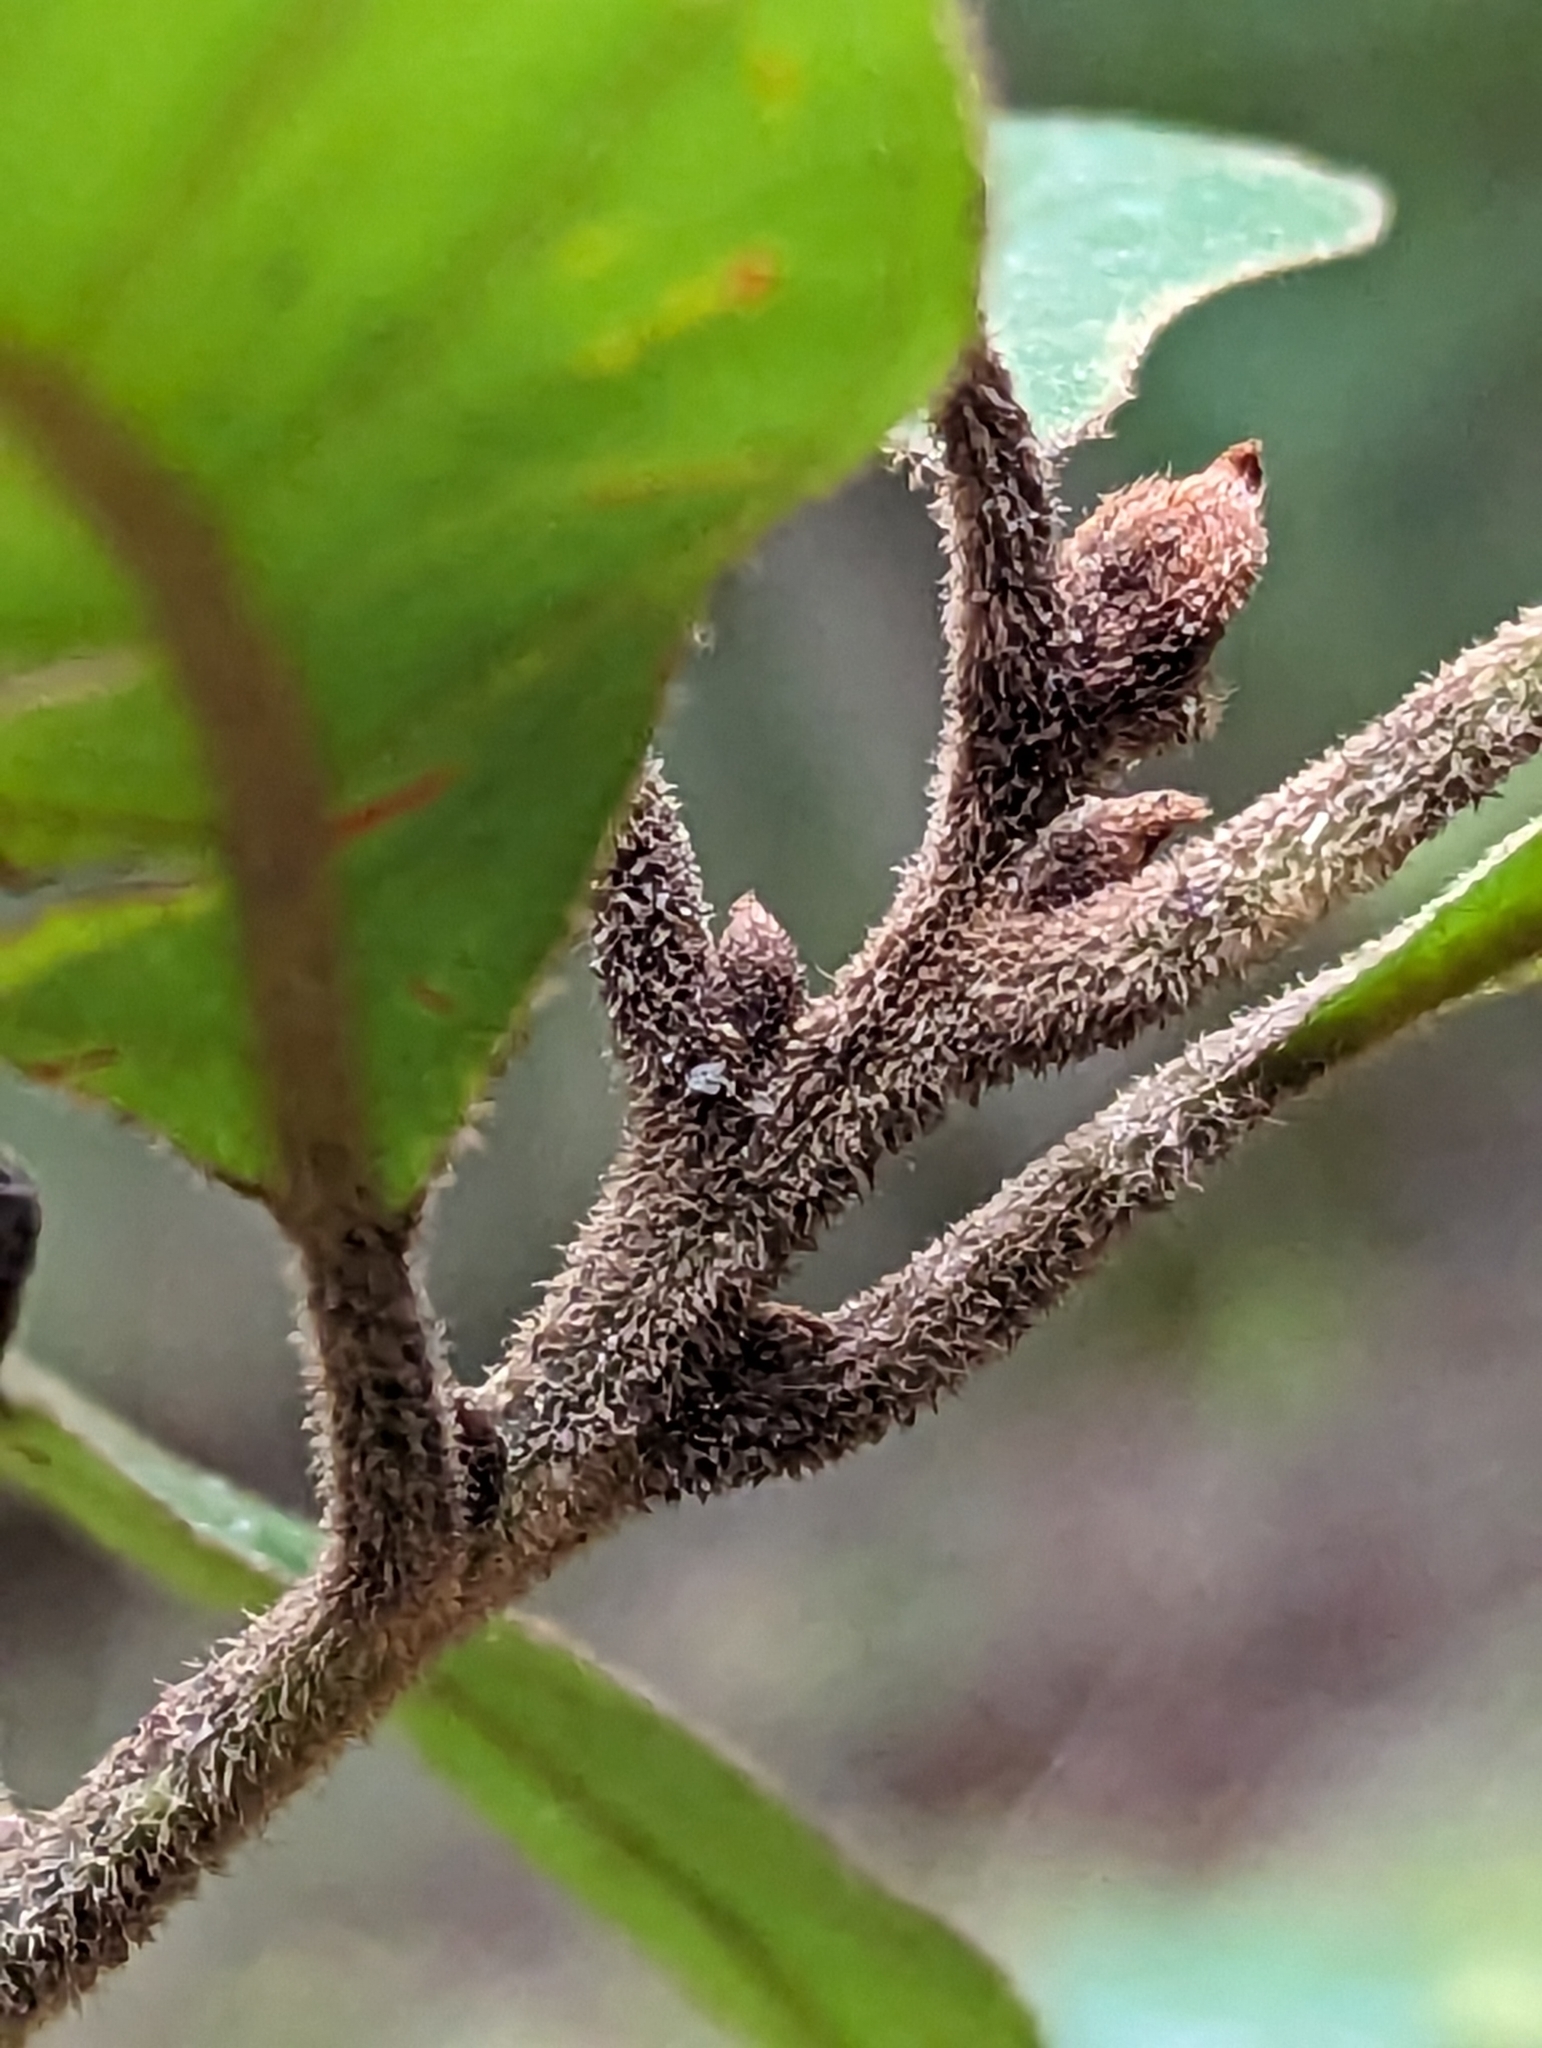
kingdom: Plantae
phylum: Tracheophyta
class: Magnoliopsida
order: Laurales
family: Lauraceae
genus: Persea
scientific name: Persea palustris
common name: Swampbay
